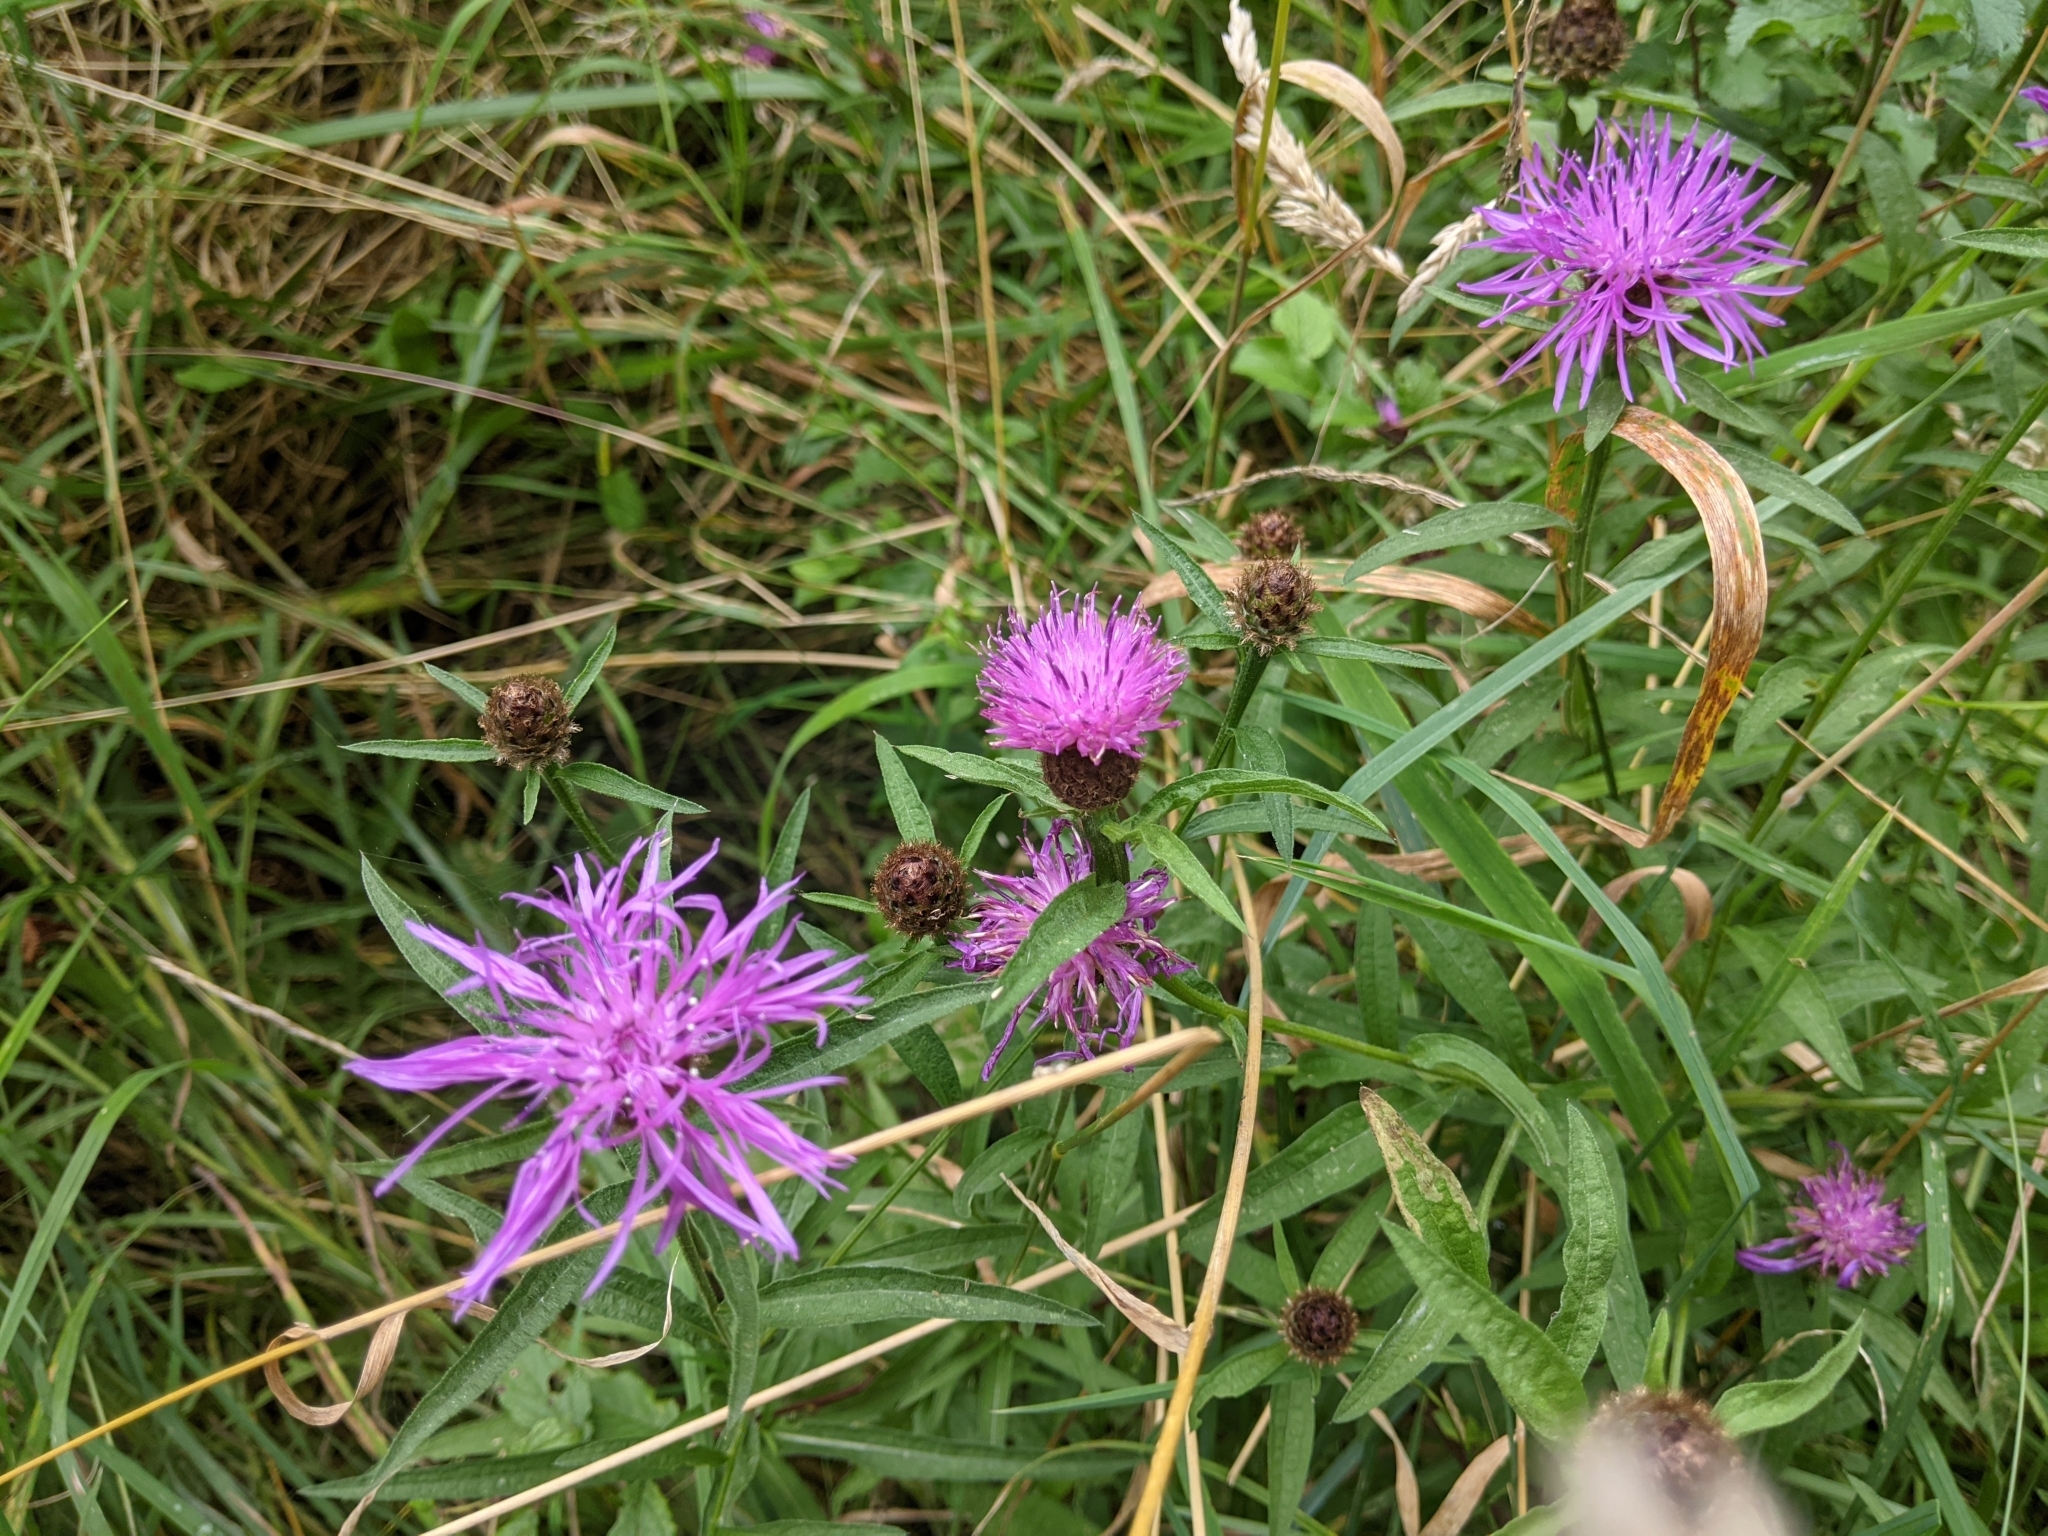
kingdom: Plantae
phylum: Tracheophyta
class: Magnoliopsida
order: Asterales
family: Asteraceae
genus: Centaurea
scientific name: Centaurea nigra
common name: Lesser knapweed
